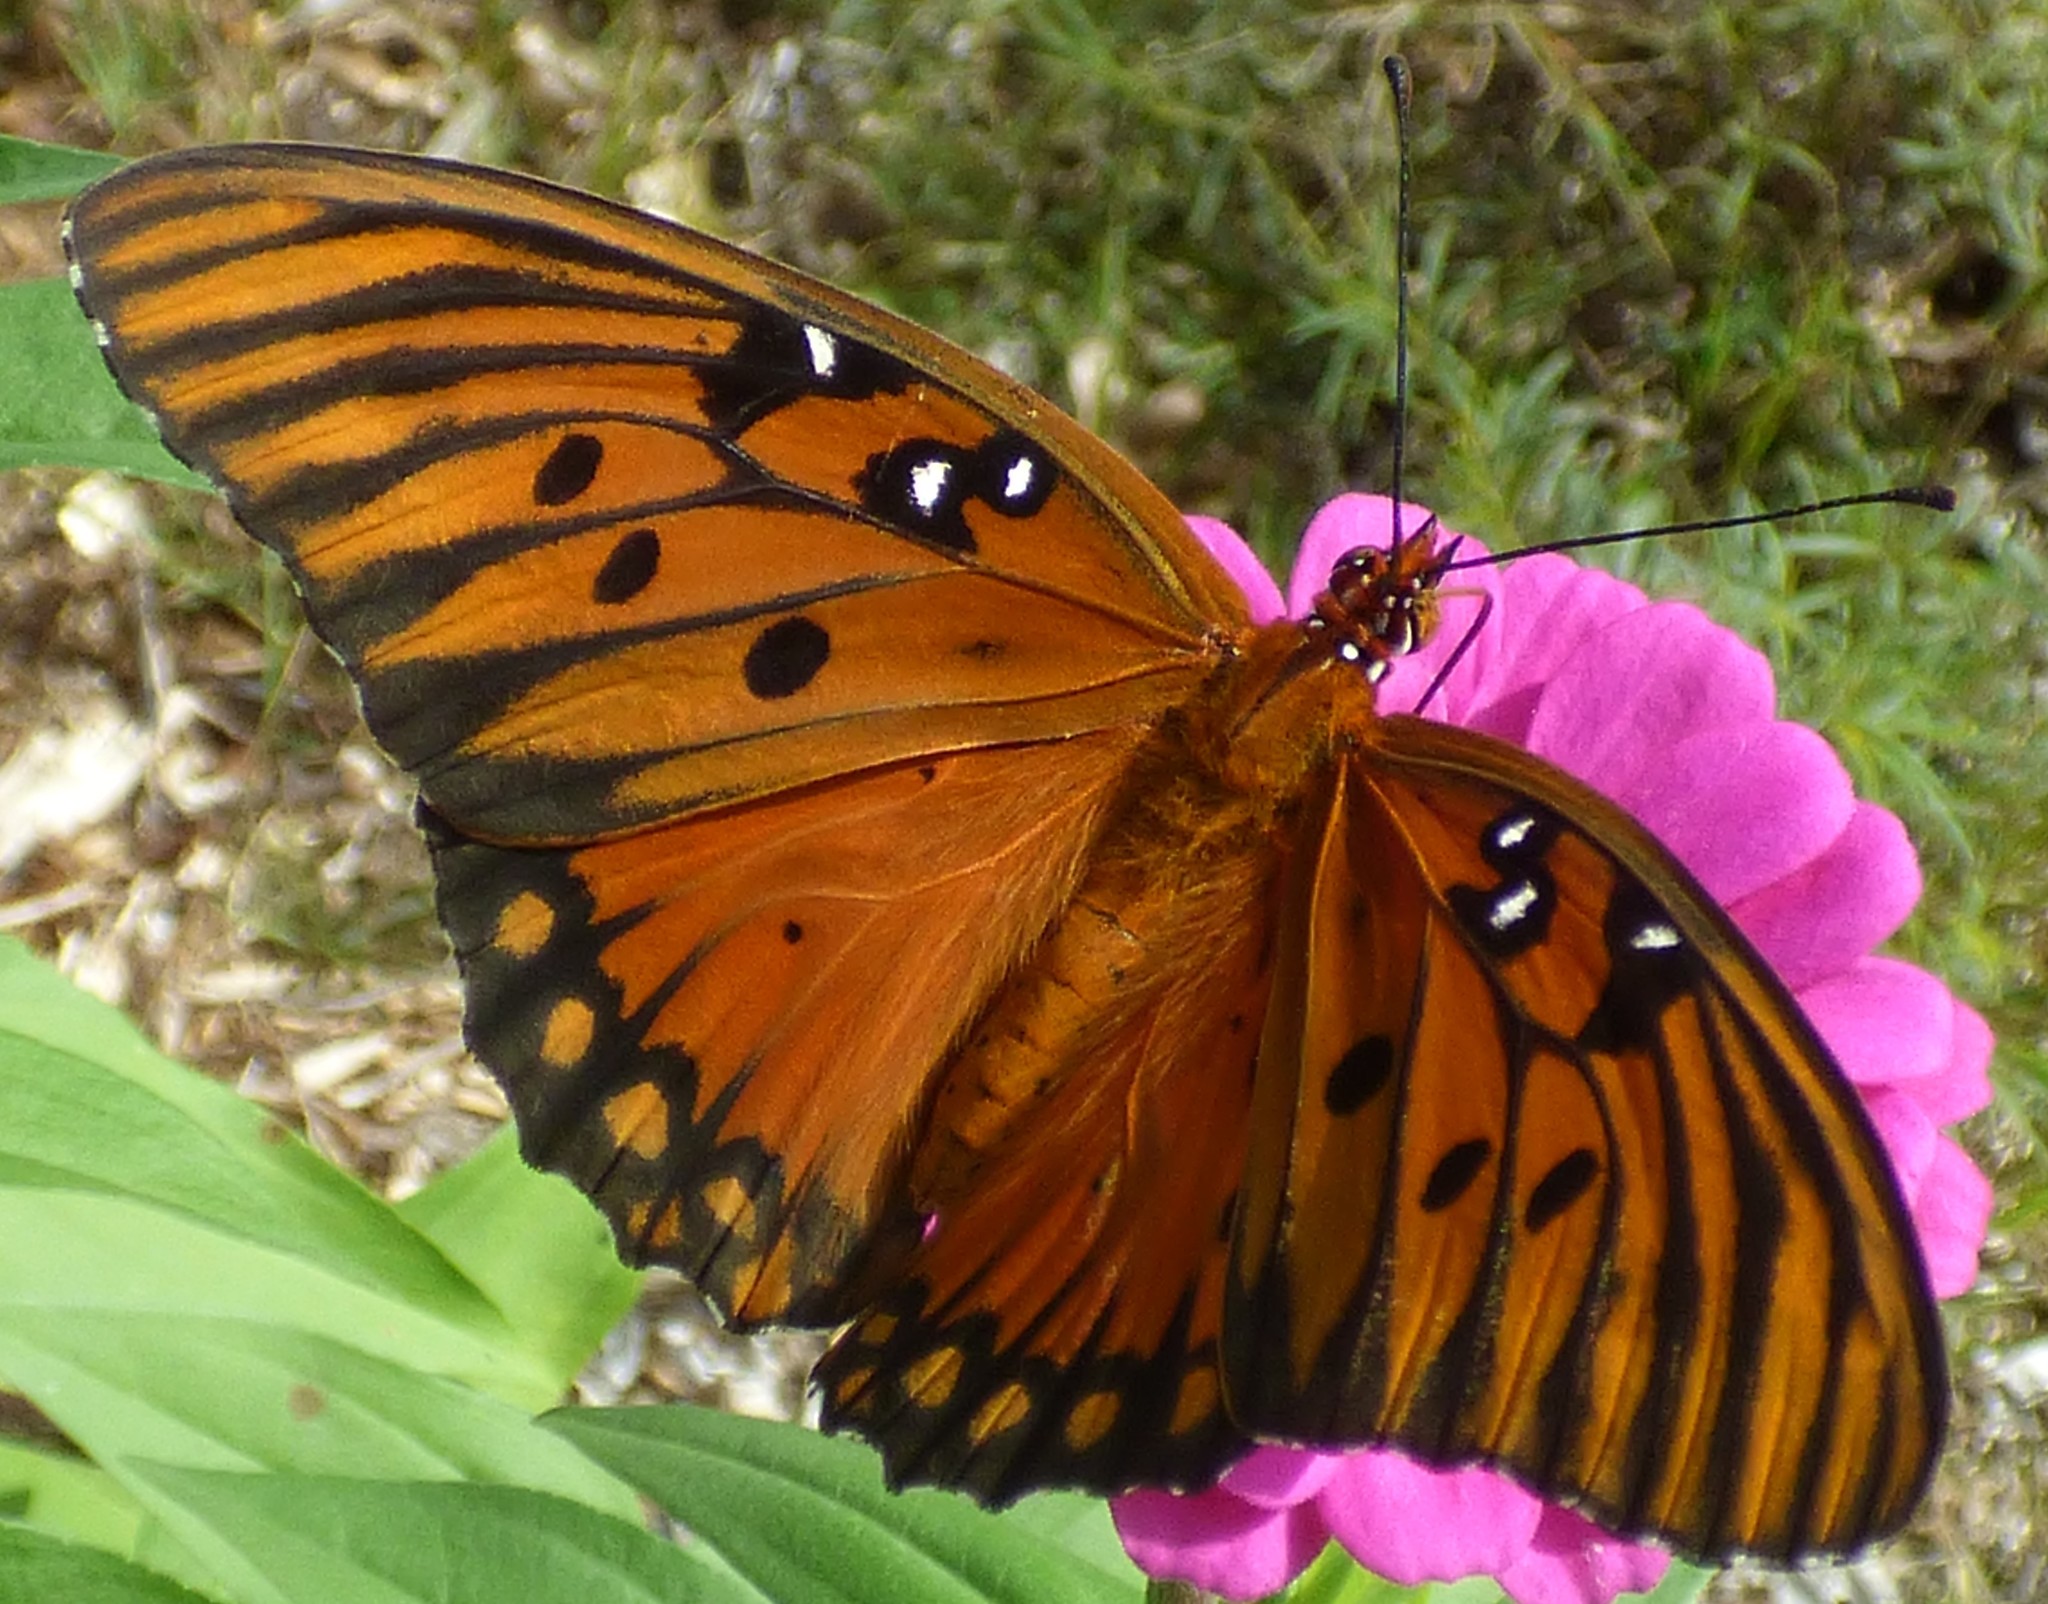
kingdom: Animalia
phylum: Arthropoda
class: Insecta
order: Lepidoptera
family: Nymphalidae
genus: Dione
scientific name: Dione vanillae
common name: Gulf fritillary
